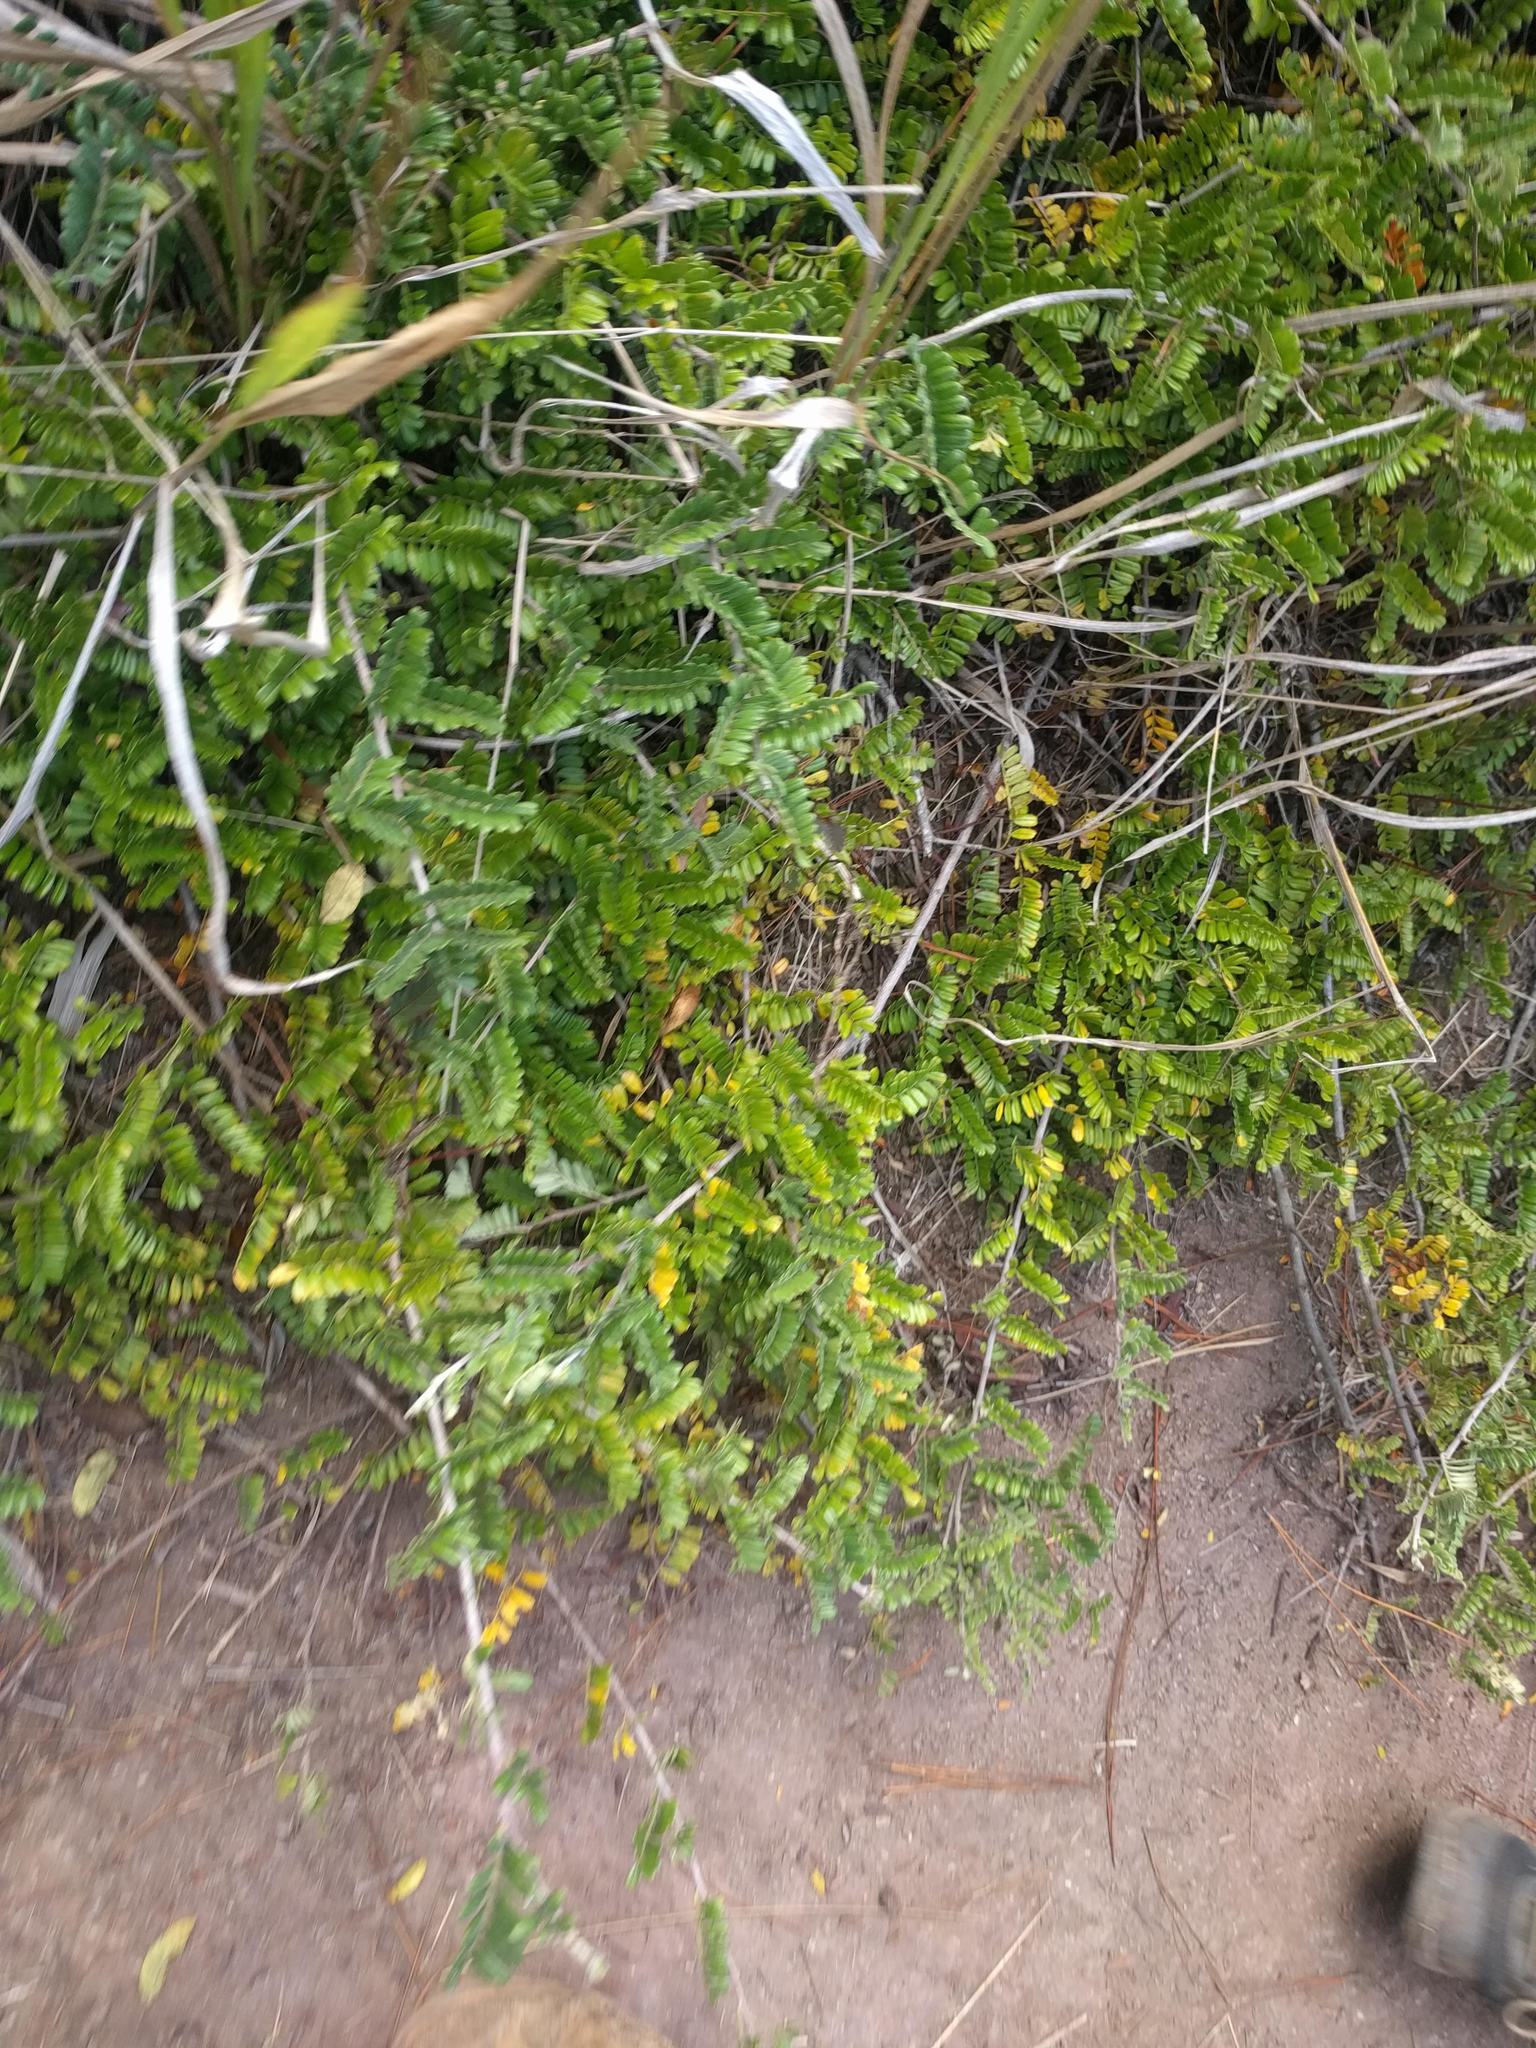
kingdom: Plantae
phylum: Tracheophyta
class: Magnoliopsida
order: Rosales
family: Rosaceae
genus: Osteomeles
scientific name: Osteomeles anthyllidifolia
